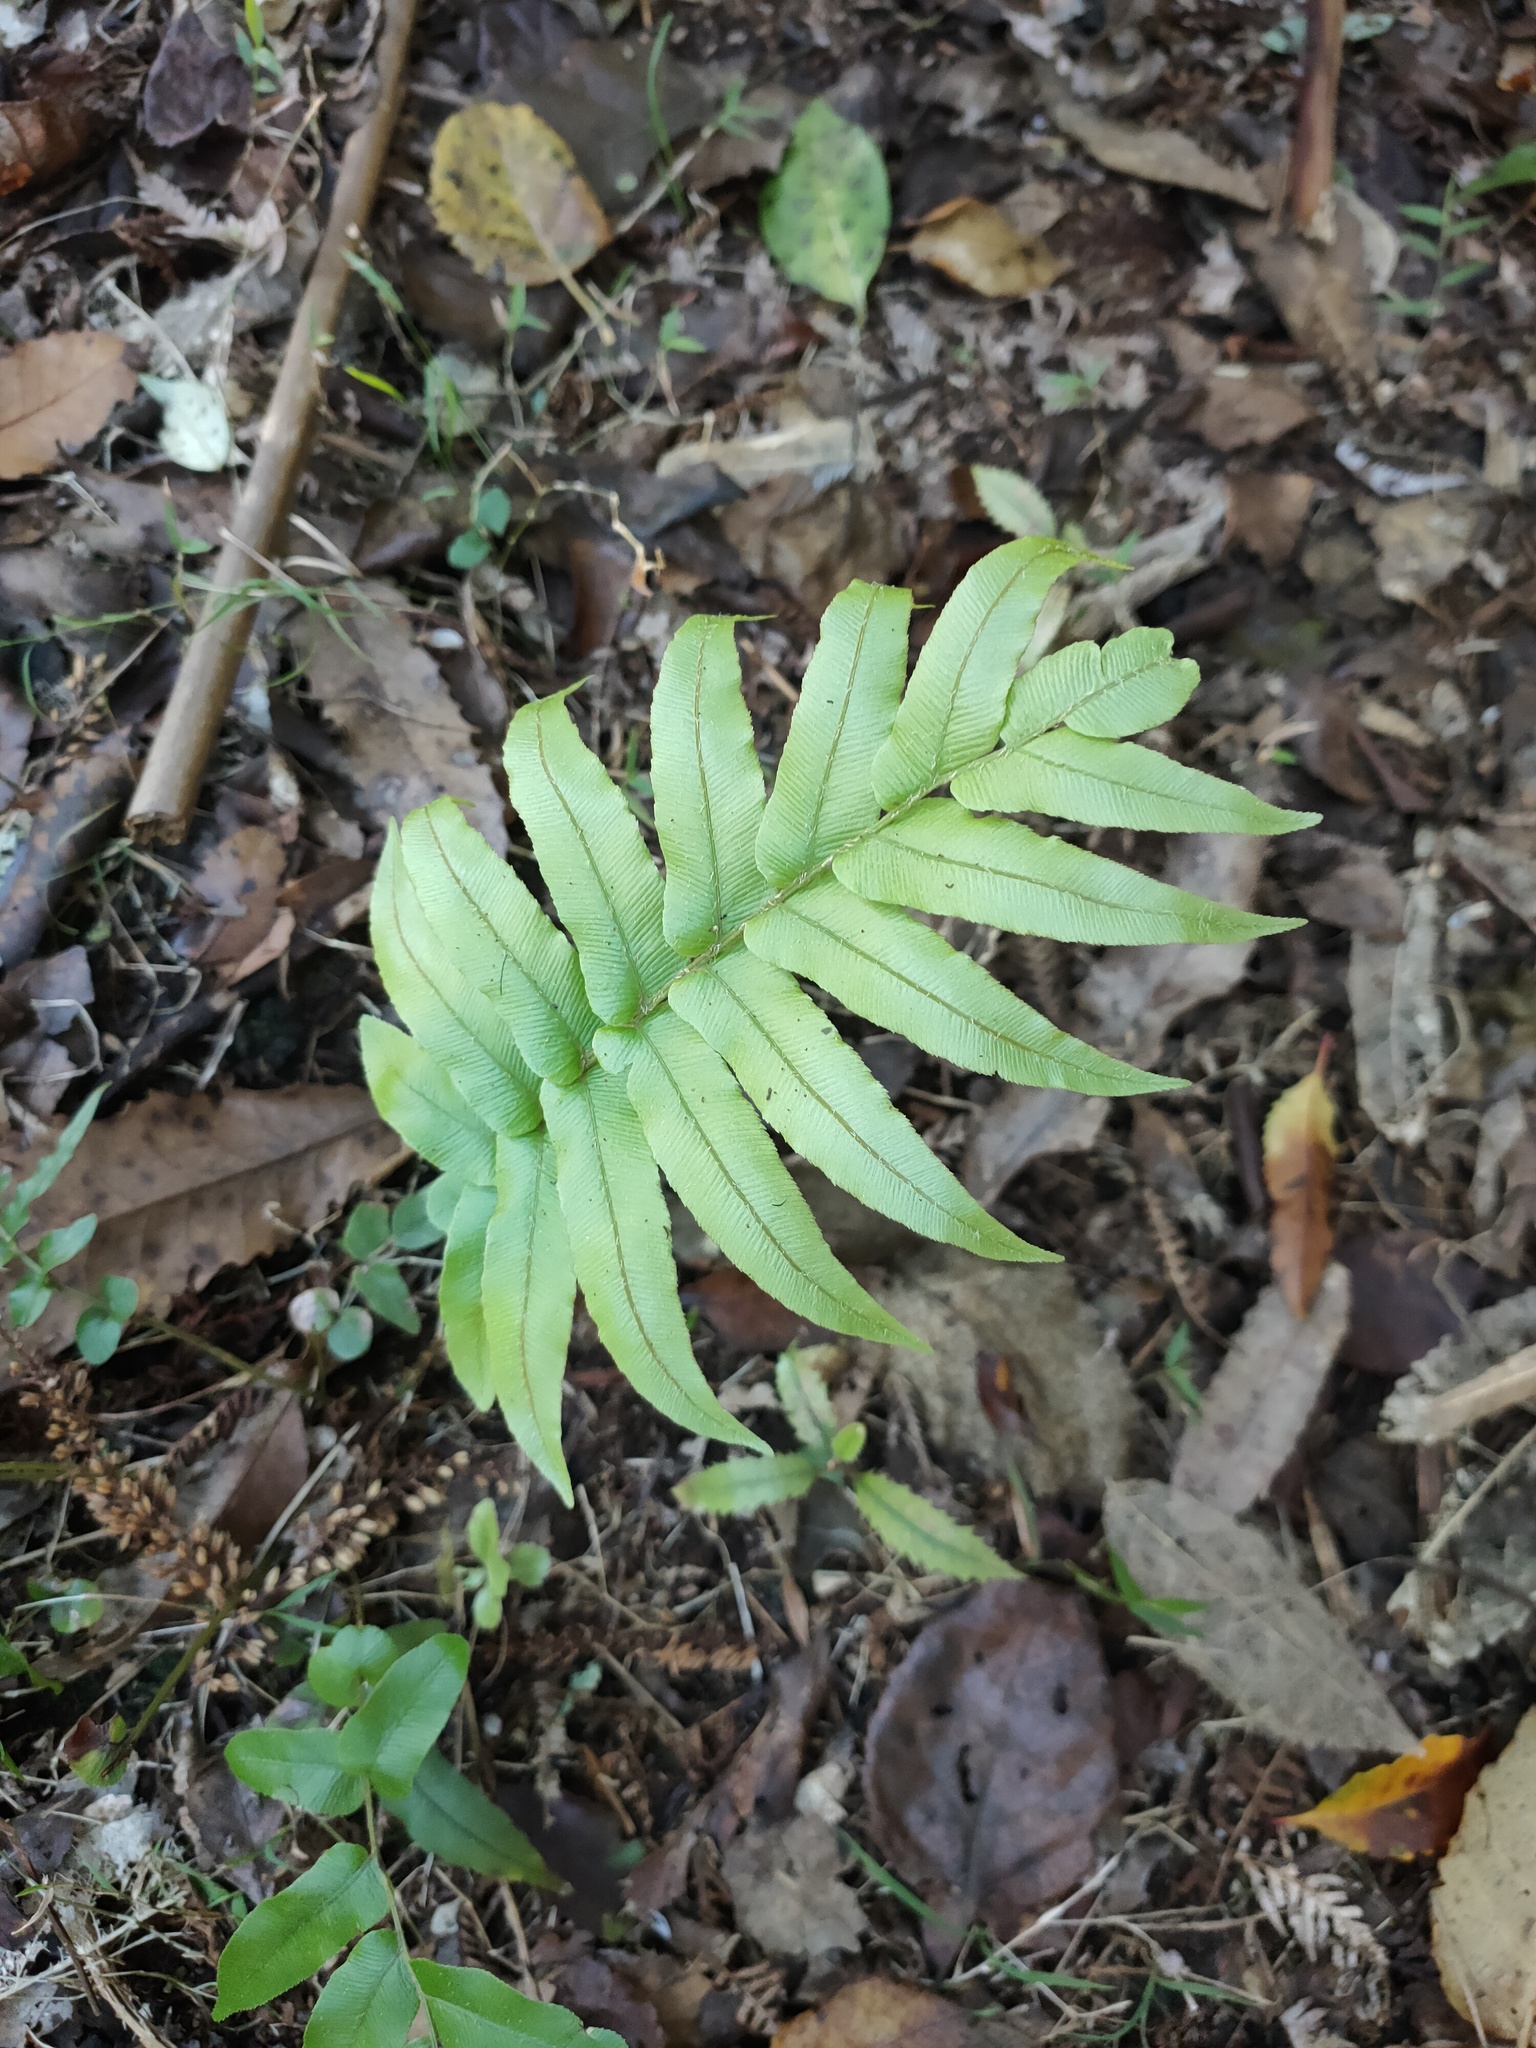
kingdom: Plantae
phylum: Tracheophyta
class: Polypodiopsida
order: Polypodiales
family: Blechnaceae
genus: Parablechnum
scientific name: Parablechnum novae-zelandiae
